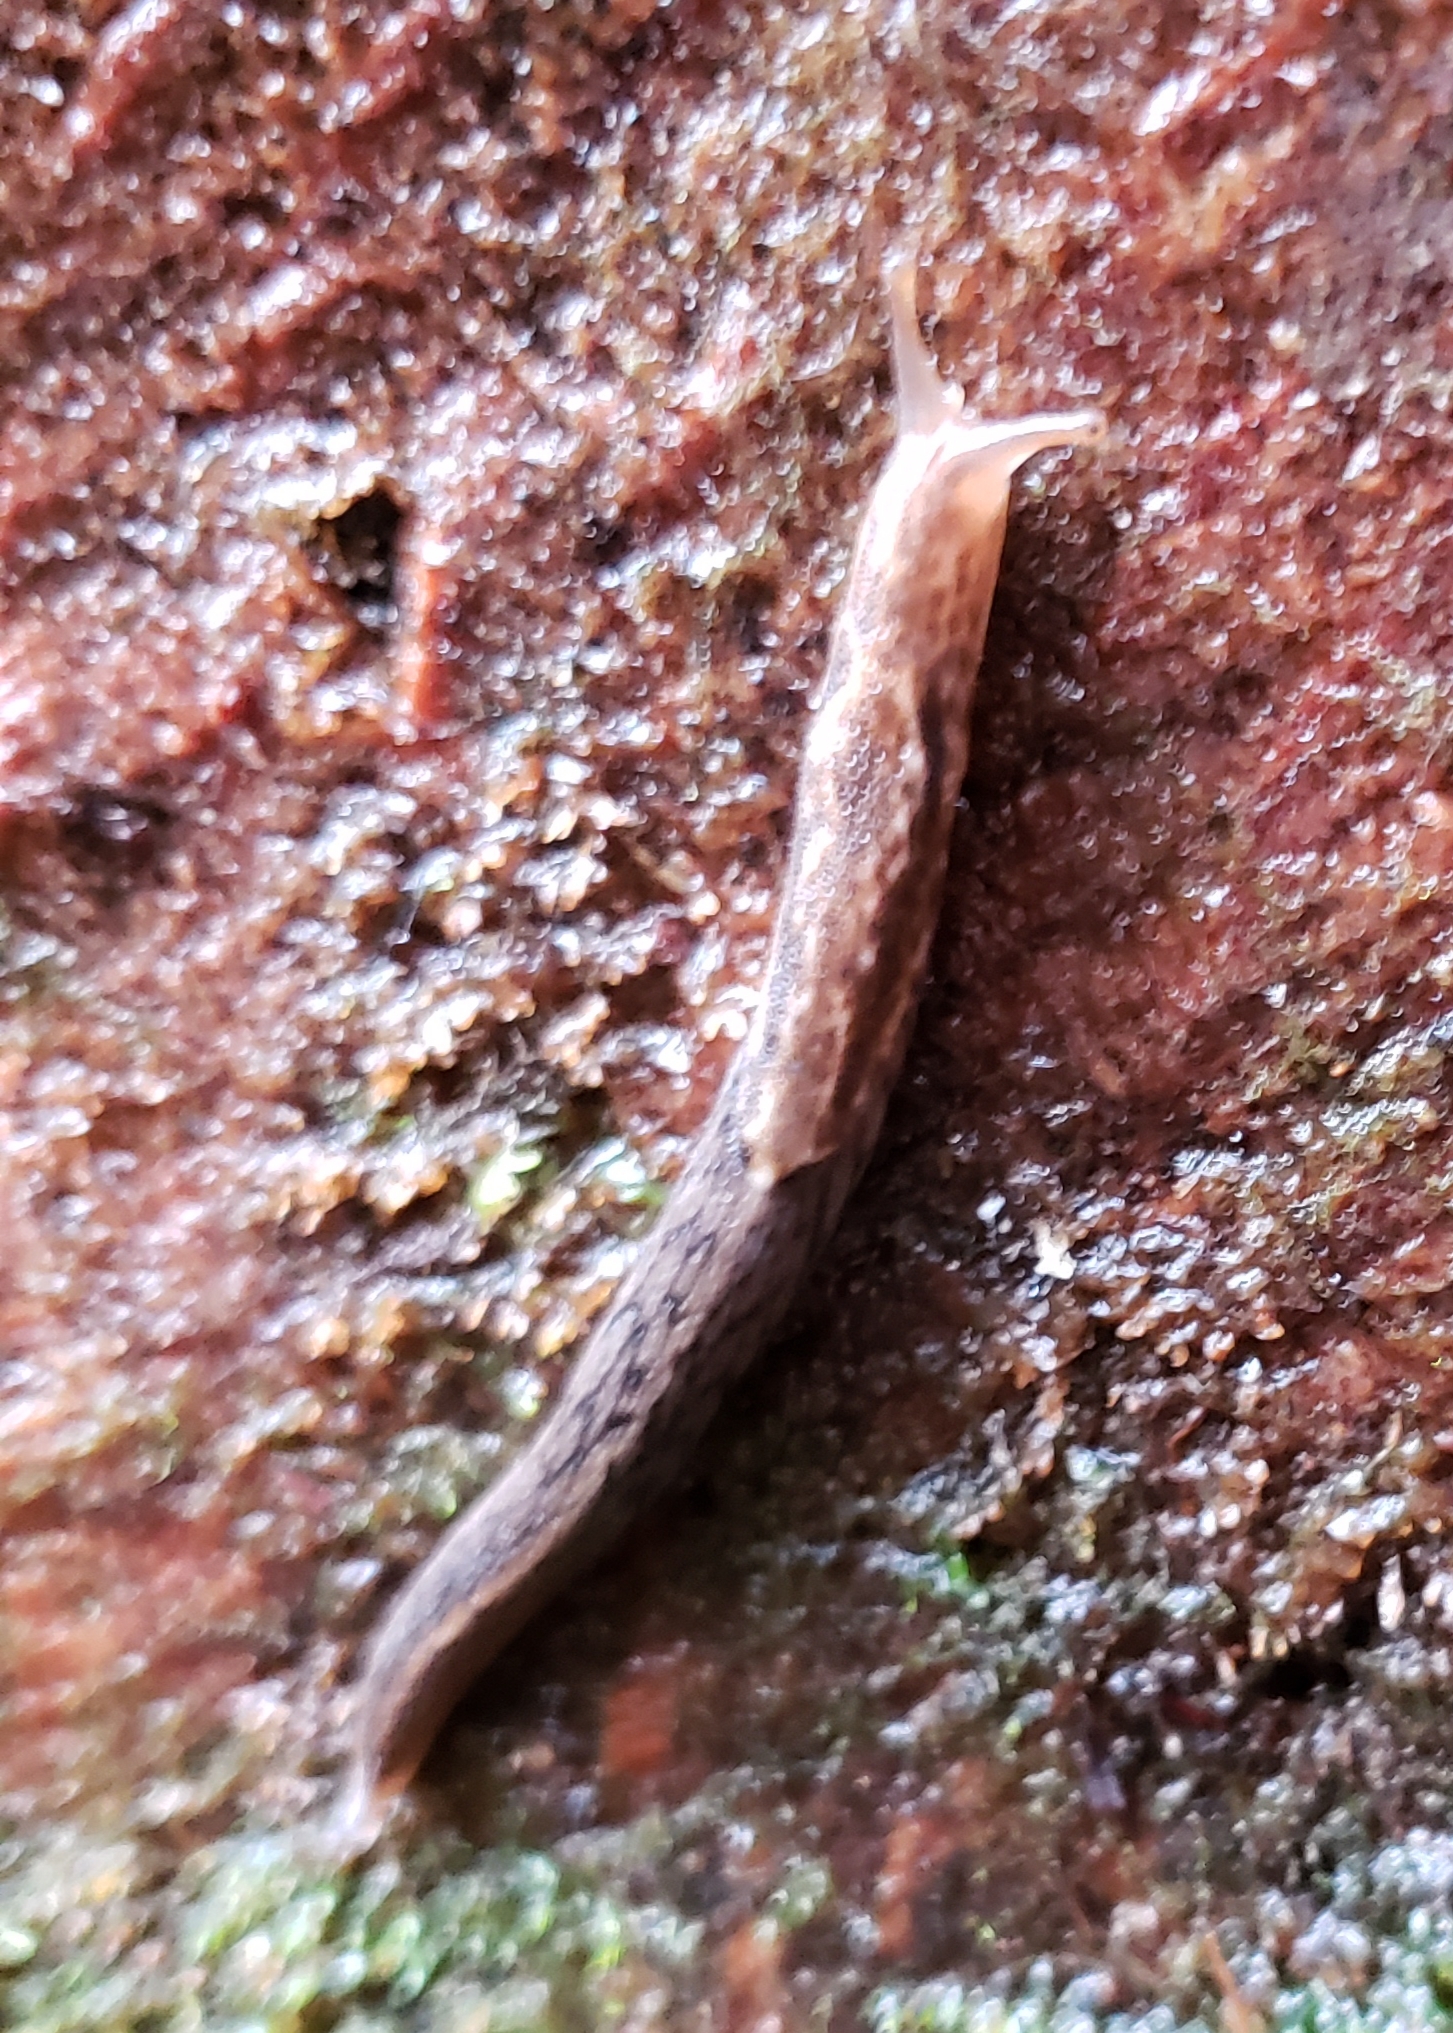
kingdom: Animalia
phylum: Mollusca
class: Gastropoda
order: Stylommatophora
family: Ariolimacidae
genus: Prophysaon
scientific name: Prophysaon andersonii
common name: Reticulate taildropper
